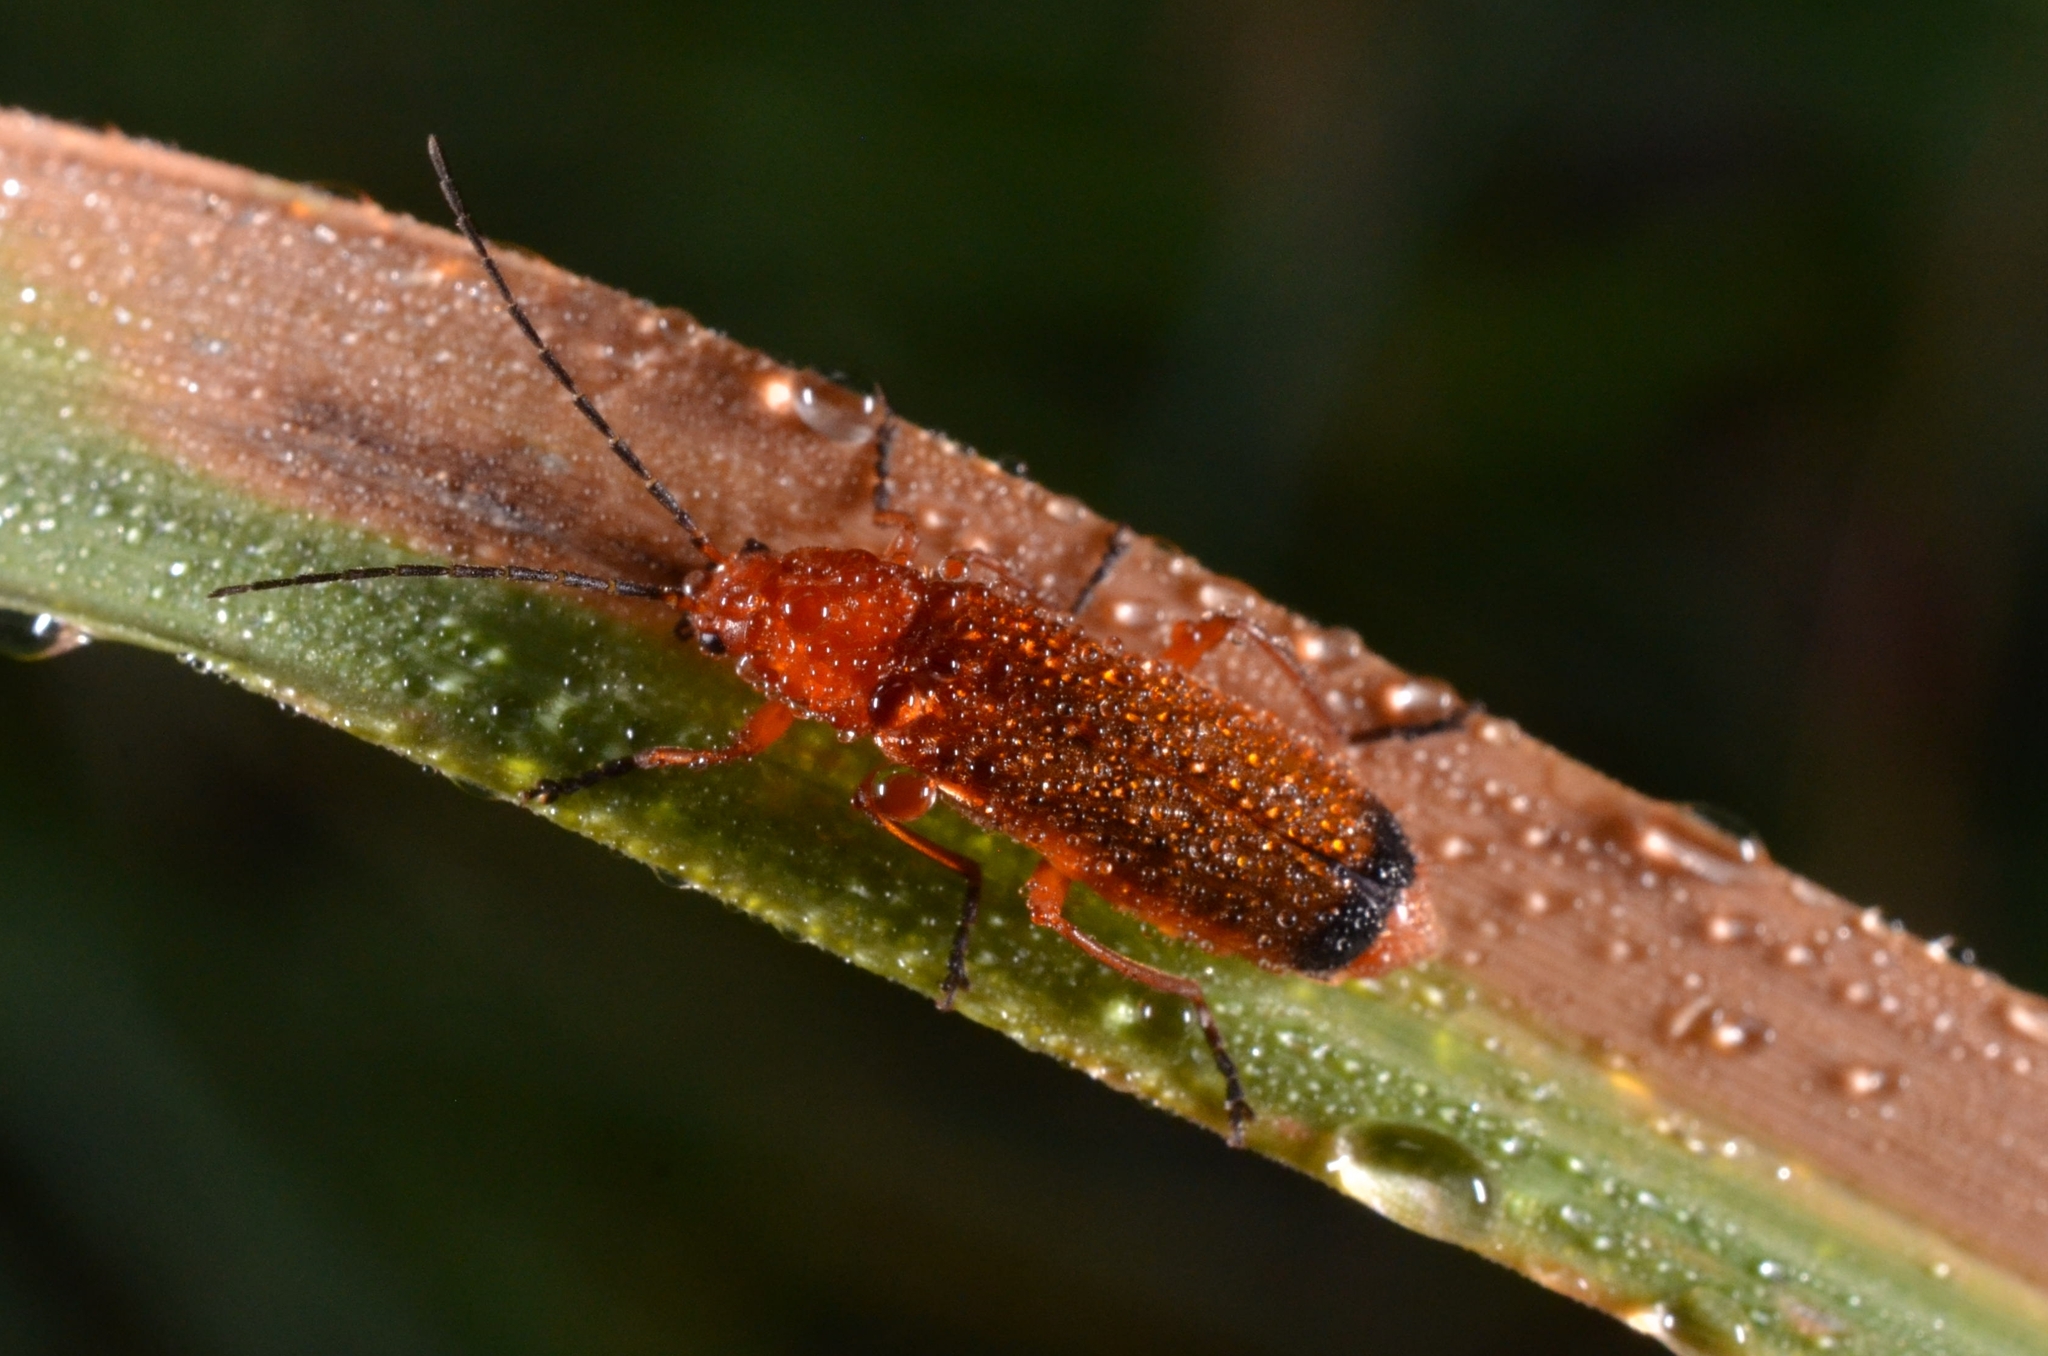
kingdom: Animalia
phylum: Arthropoda
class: Insecta
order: Coleoptera
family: Cantharidae
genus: Rhagonycha
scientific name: Rhagonycha fulva
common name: Common red soldier beetle
